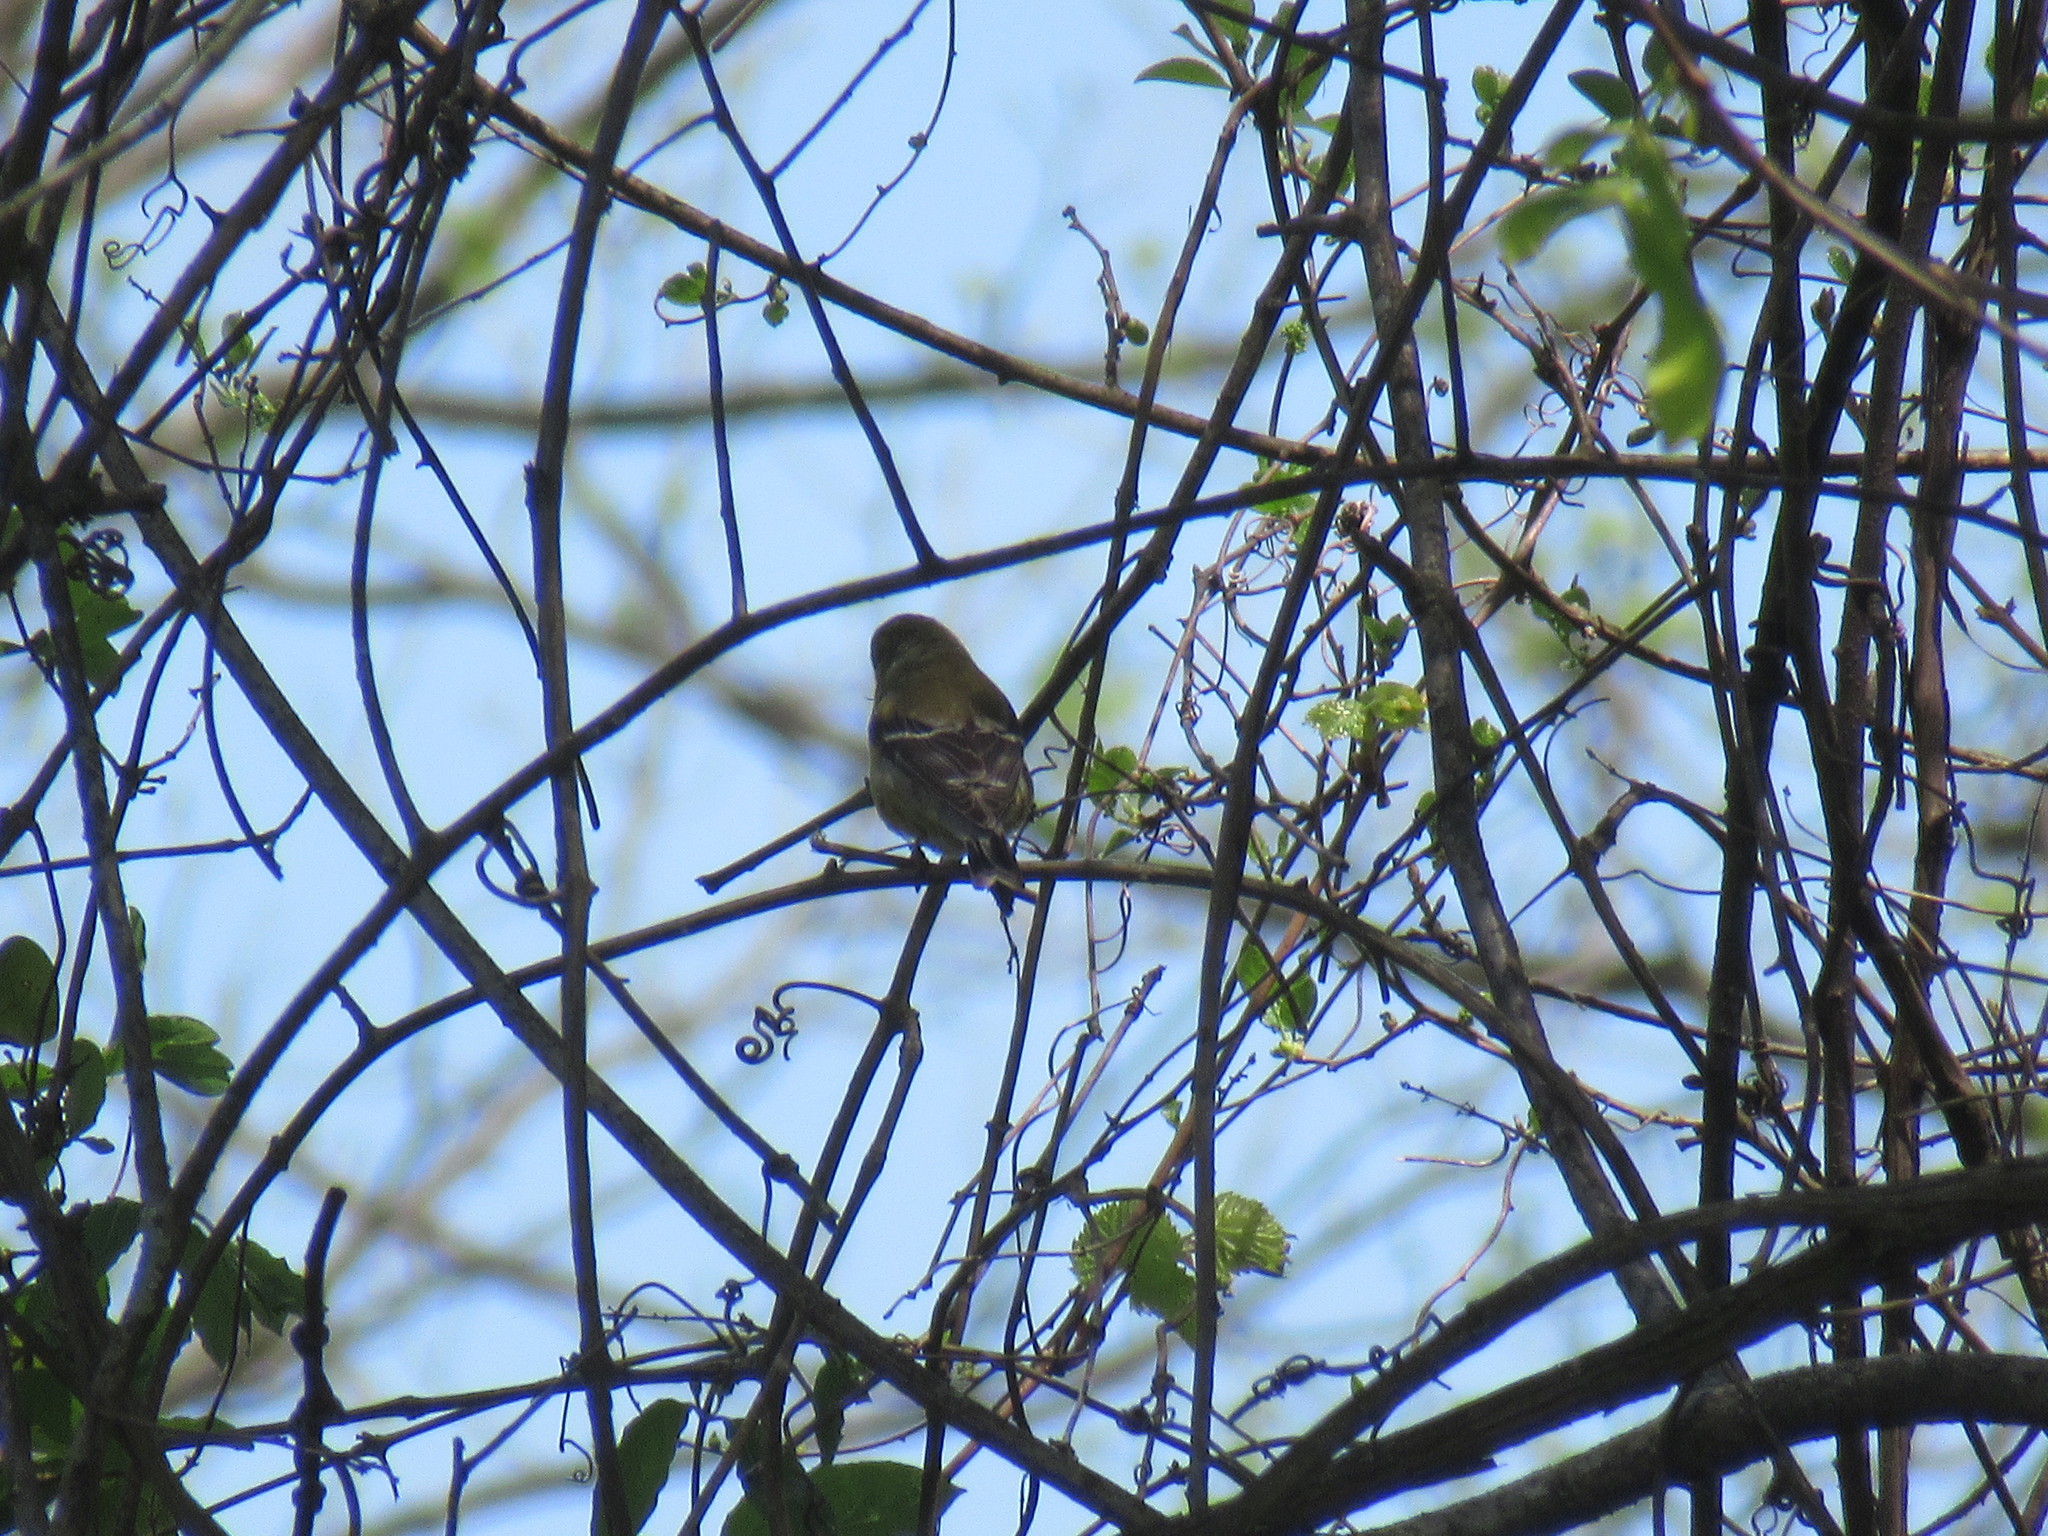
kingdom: Animalia
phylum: Chordata
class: Aves
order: Passeriformes
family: Fringillidae
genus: Spinus
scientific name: Spinus tristis
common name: American goldfinch
